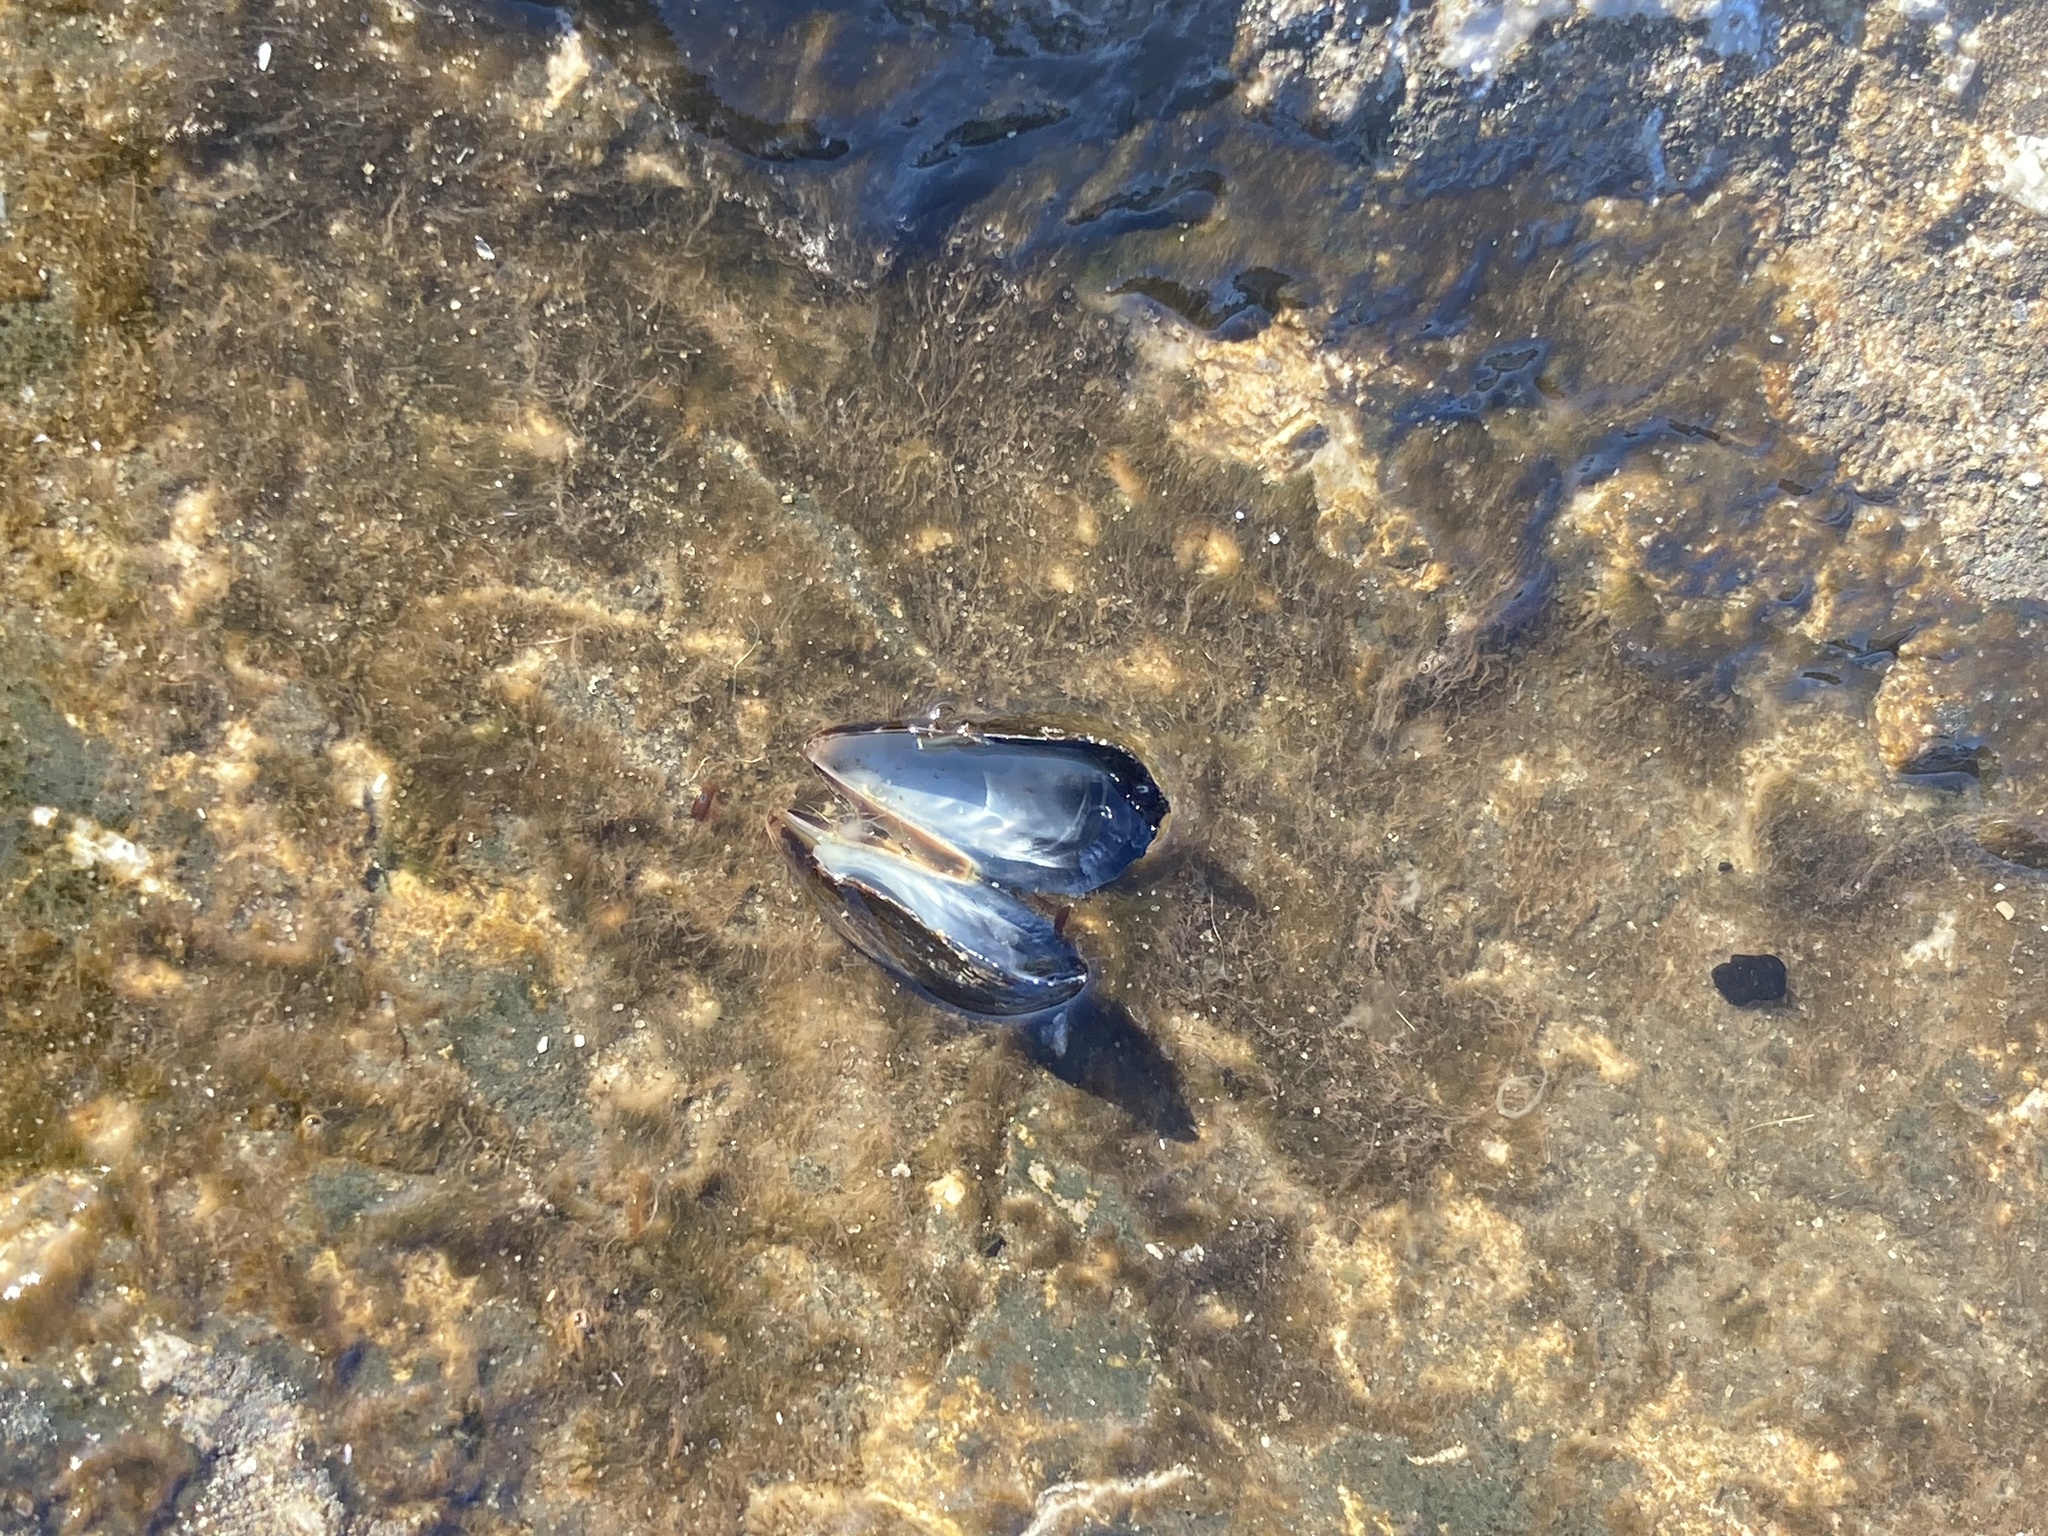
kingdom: Animalia
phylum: Mollusca
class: Bivalvia
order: Mytilida
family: Mytilidae
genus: Mytilus
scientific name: Mytilus edulis
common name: Blue mussel
